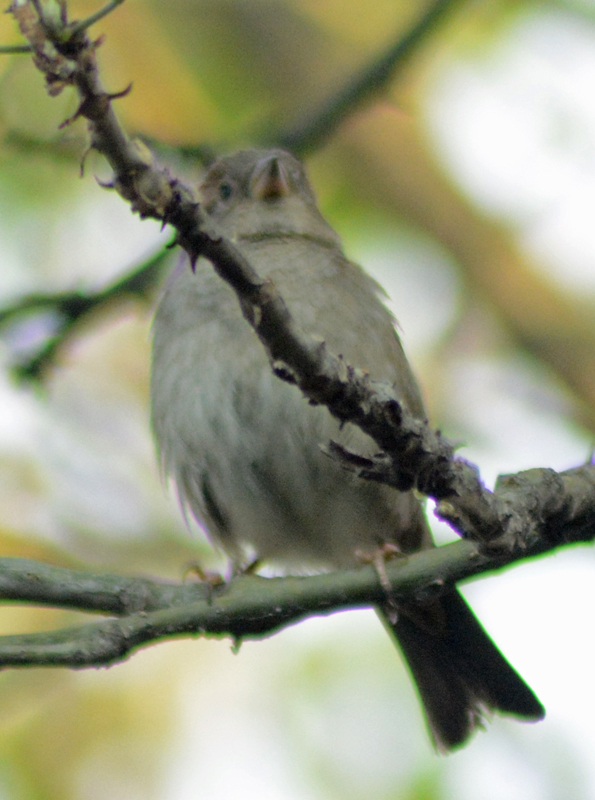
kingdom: Animalia
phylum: Chordata
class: Aves
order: Passeriformes
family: Passeridae
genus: Passer
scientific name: Passer domesticus
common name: House sparrow
